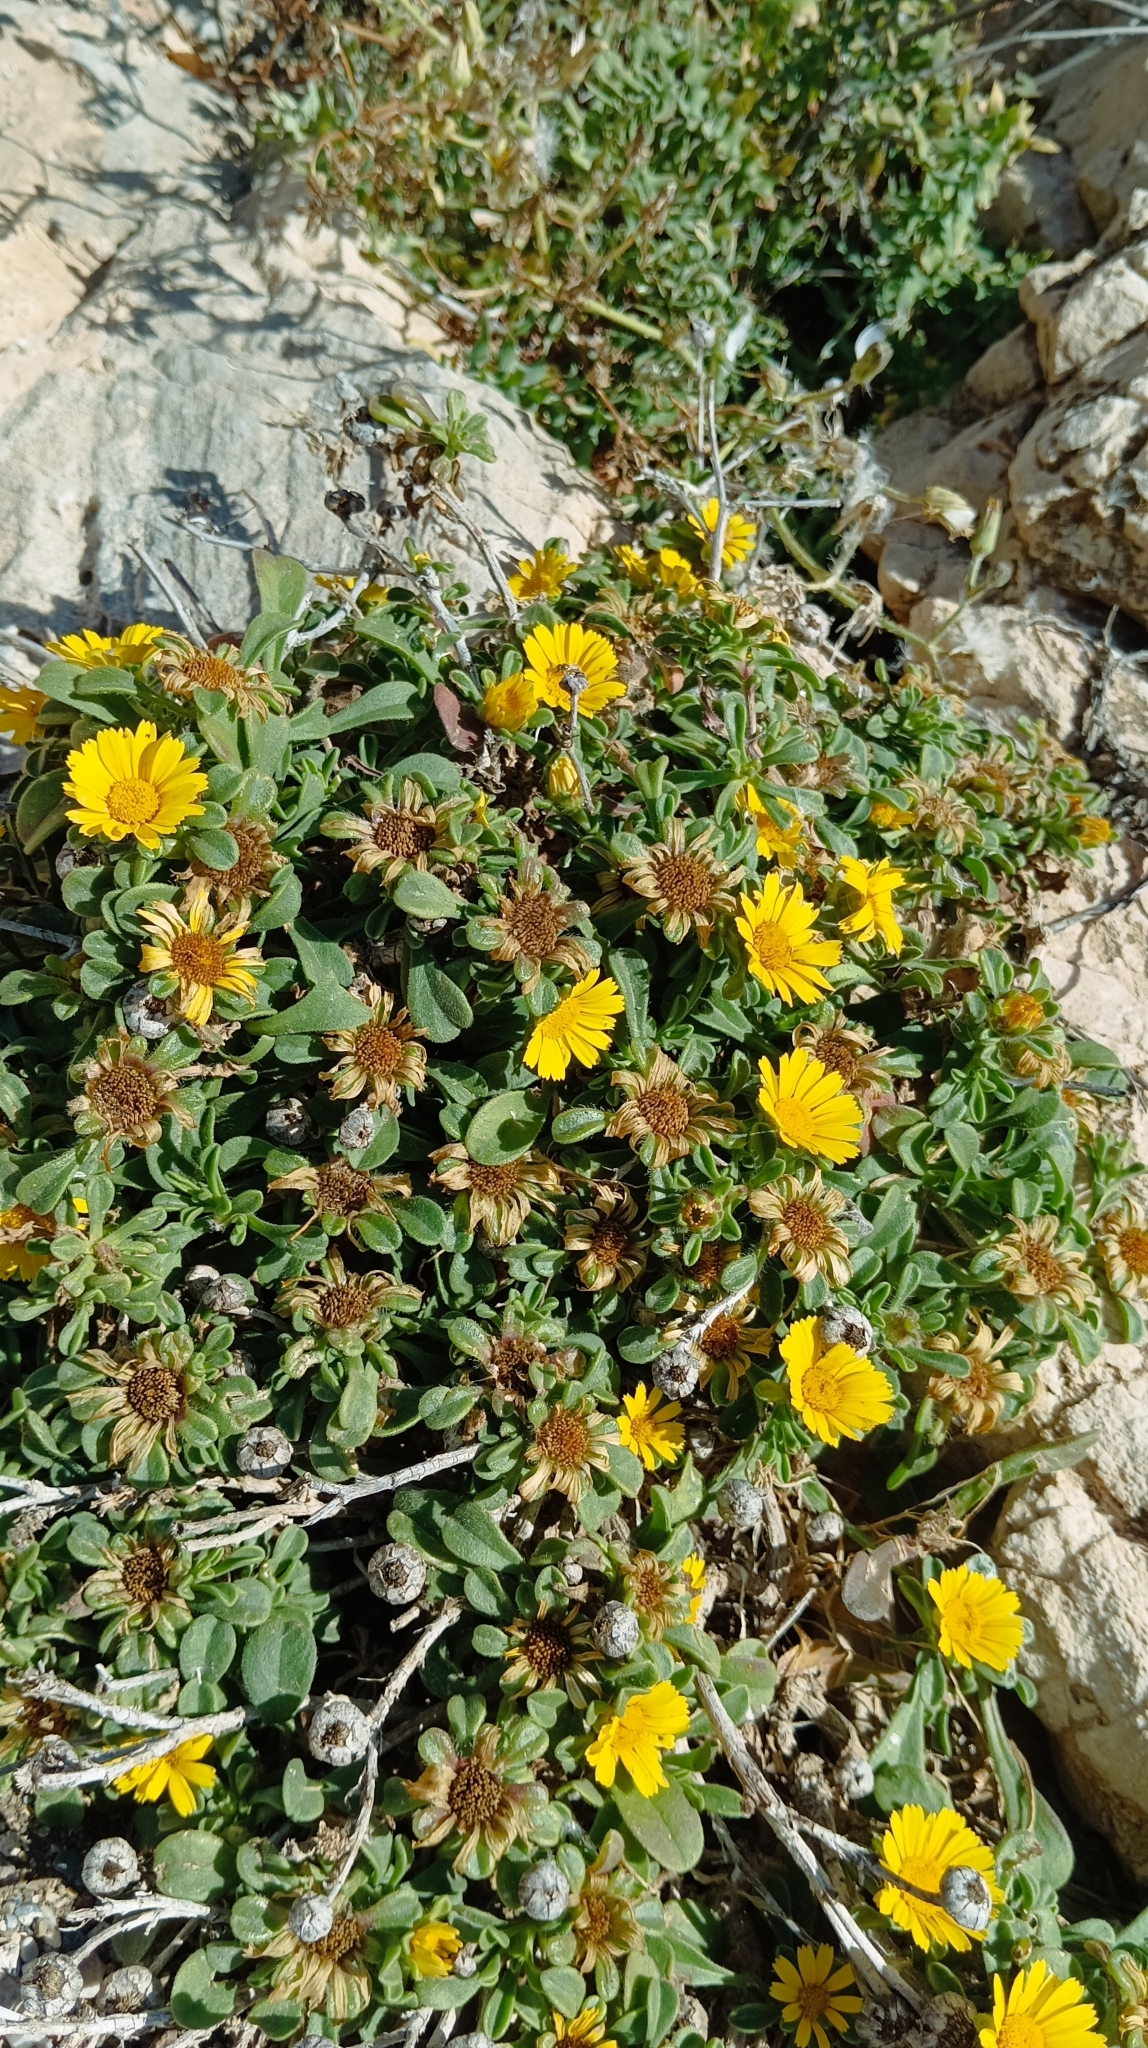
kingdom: Plantae
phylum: Tracheophyta
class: Magnoliopsida
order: Asterales
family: Asteraceae
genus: Pallenis
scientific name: Pallenis maritima
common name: Golden coin daisy
